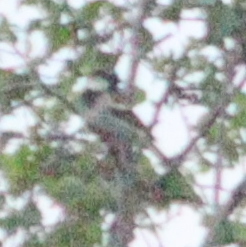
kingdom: Animalia
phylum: Chordata
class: Aves
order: Passeriformes
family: Passeridae
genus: Passer
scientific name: Passer domesticus
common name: House sparrow
